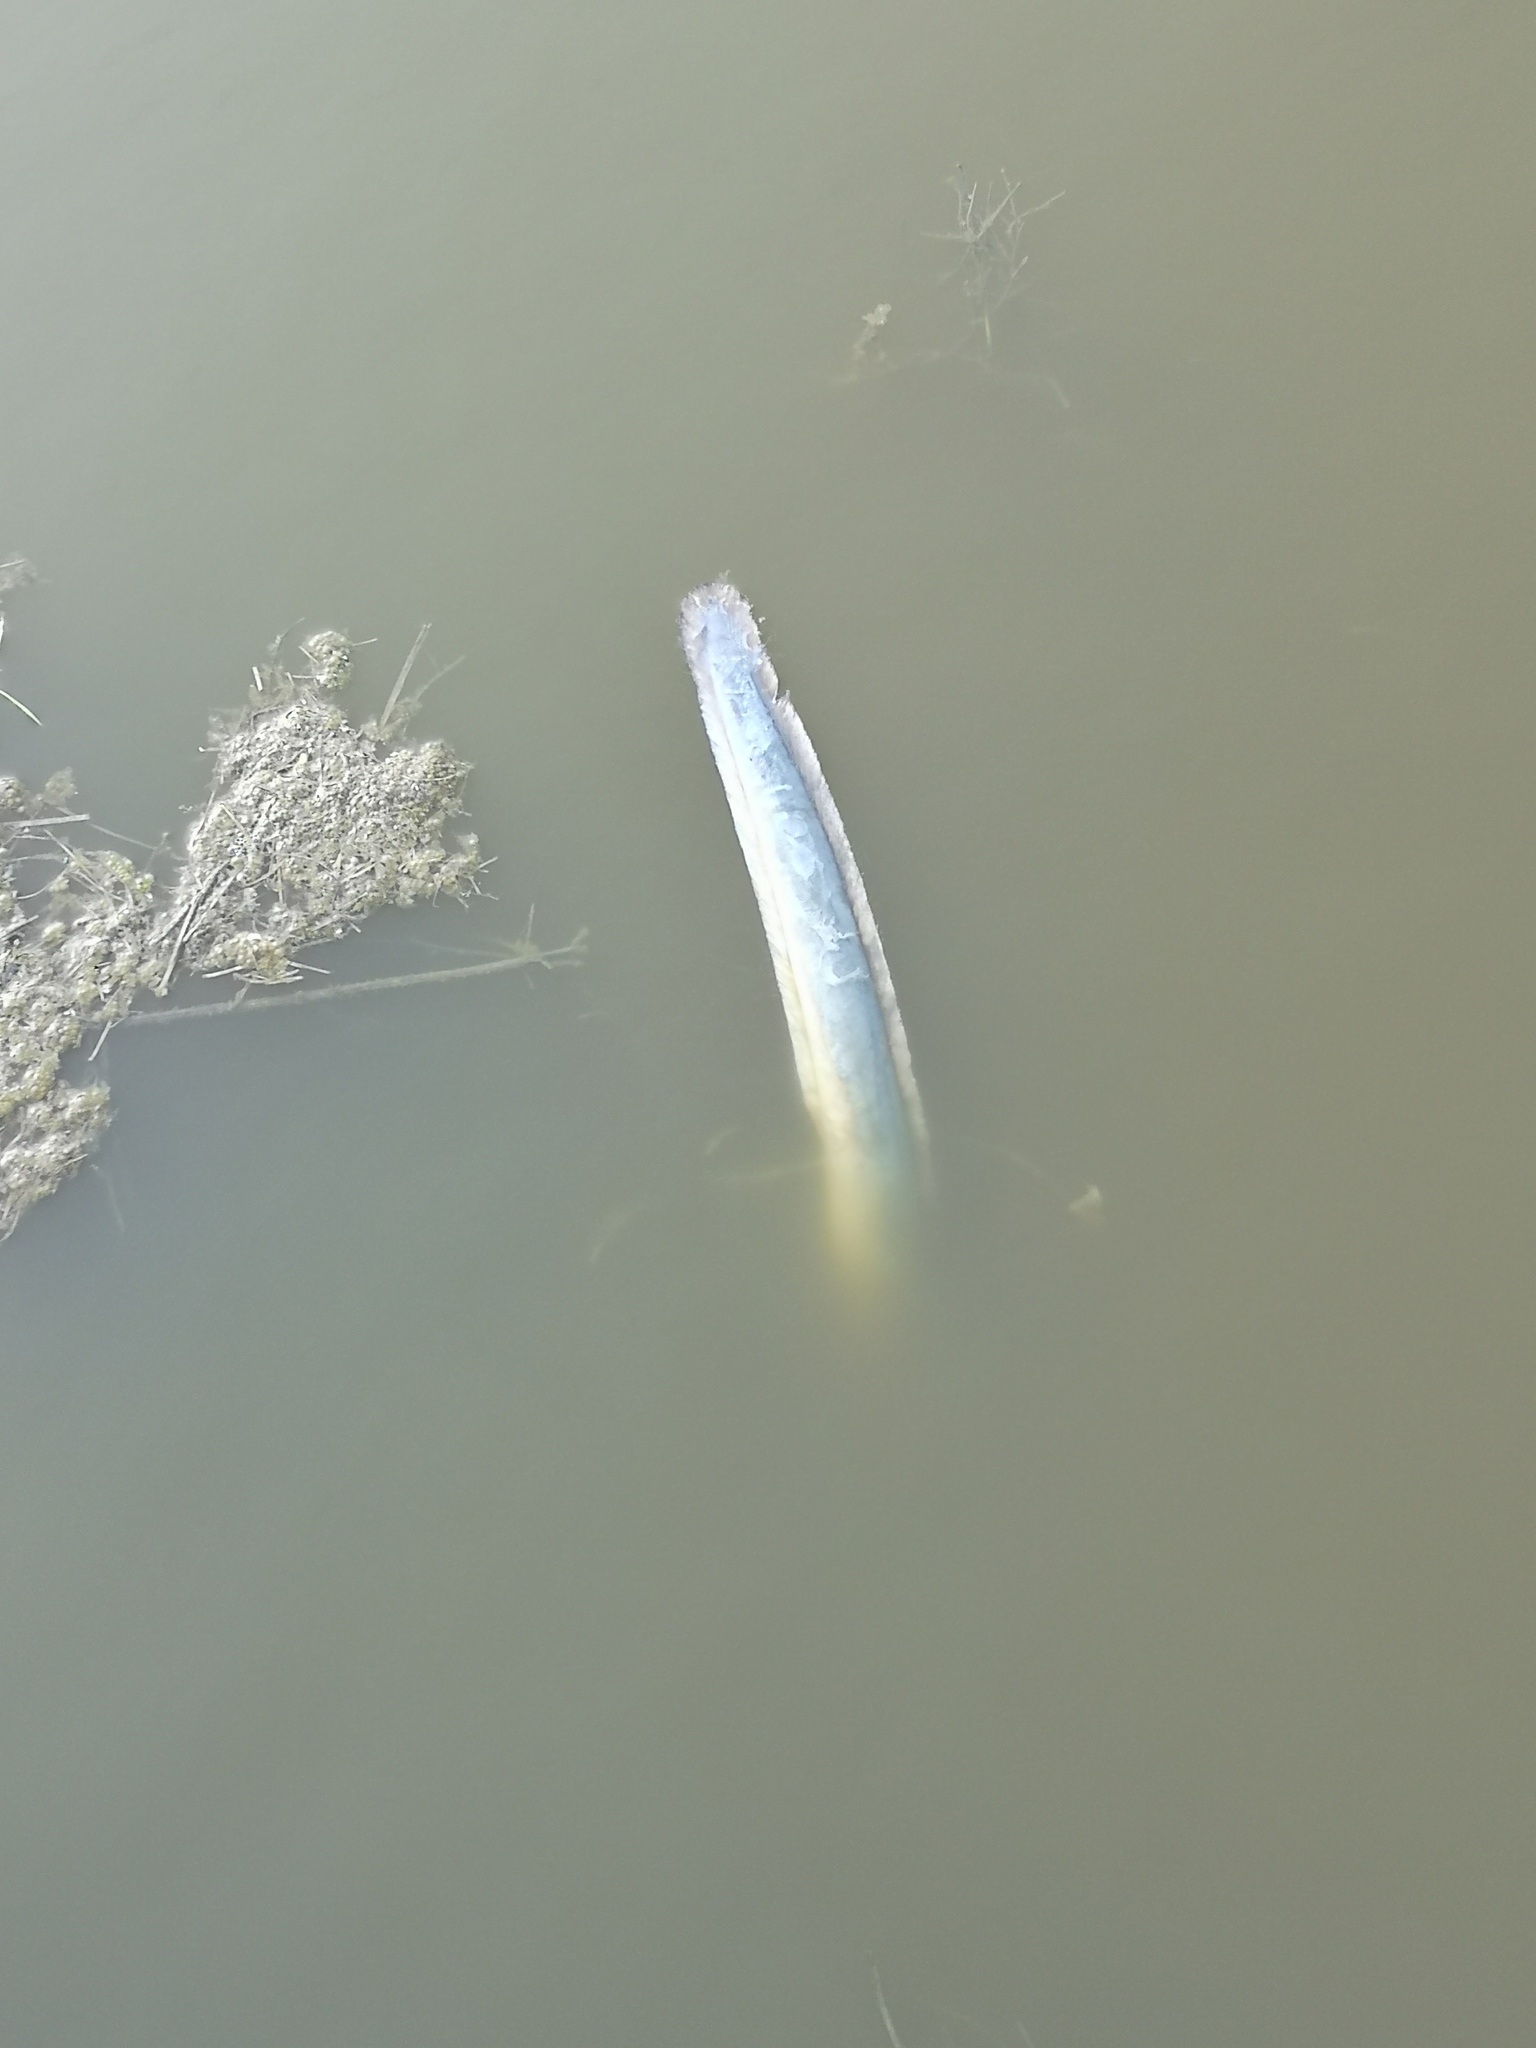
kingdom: Animalia
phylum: Chordata
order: Anguilliformes
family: Anguillidae
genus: Anguilla
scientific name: Anguilla anguilla
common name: European eel
